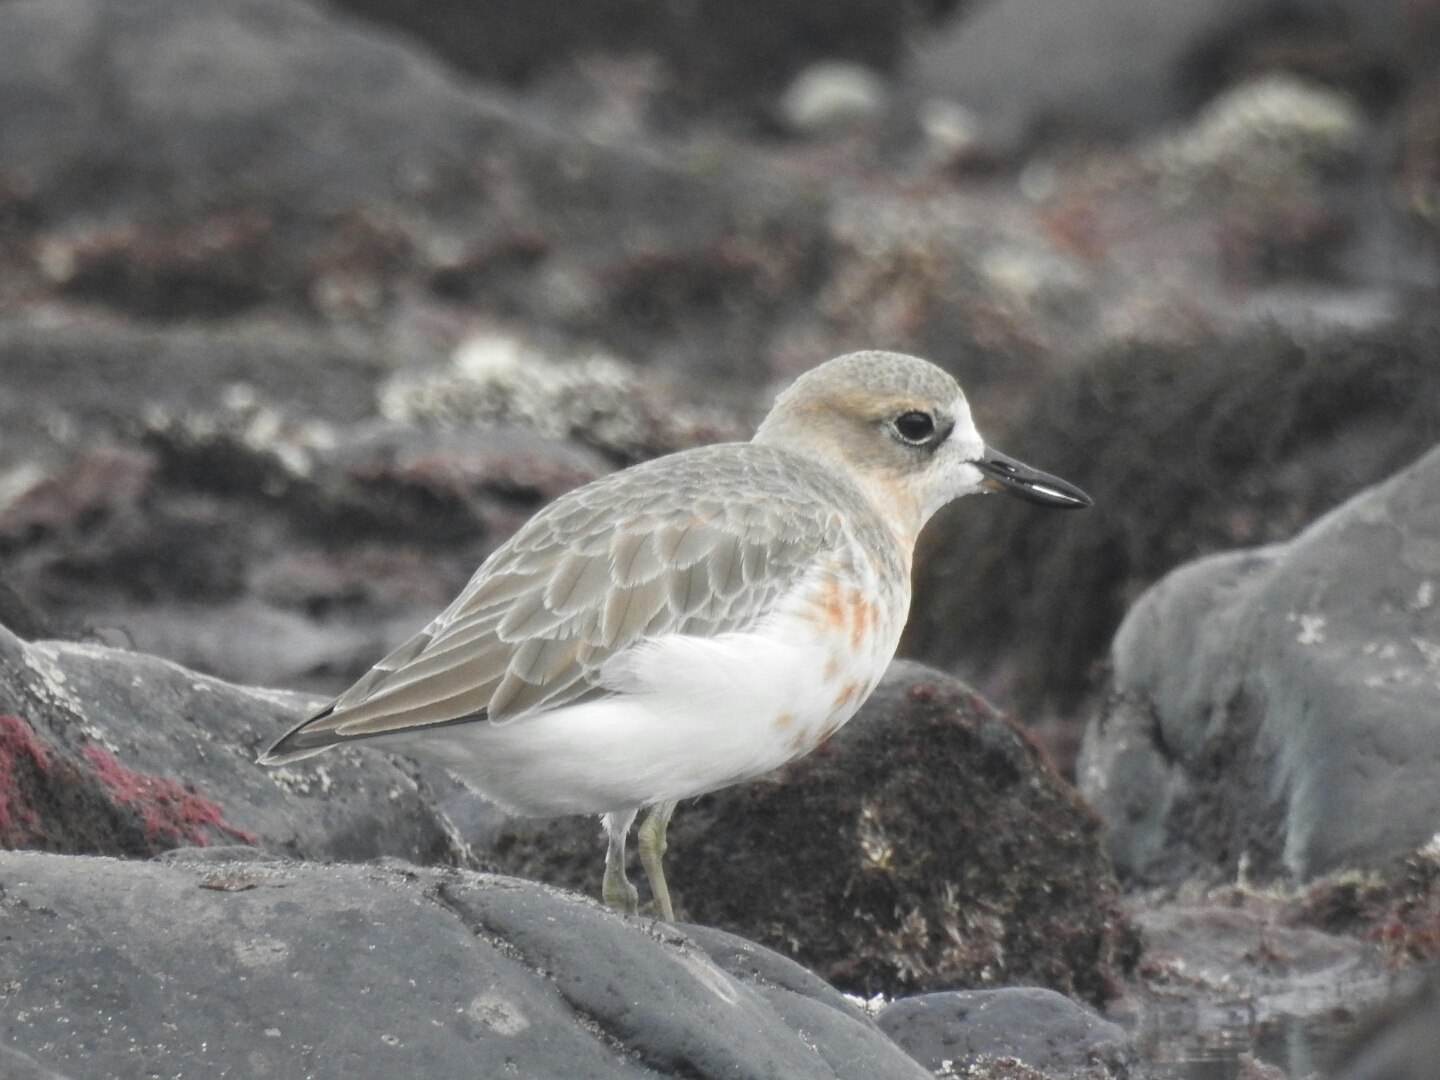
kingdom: Animalia
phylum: Chordata
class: Aves
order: Charadriiformes
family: Charadriidae
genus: Anarhynchus
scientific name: Anarhynchus
